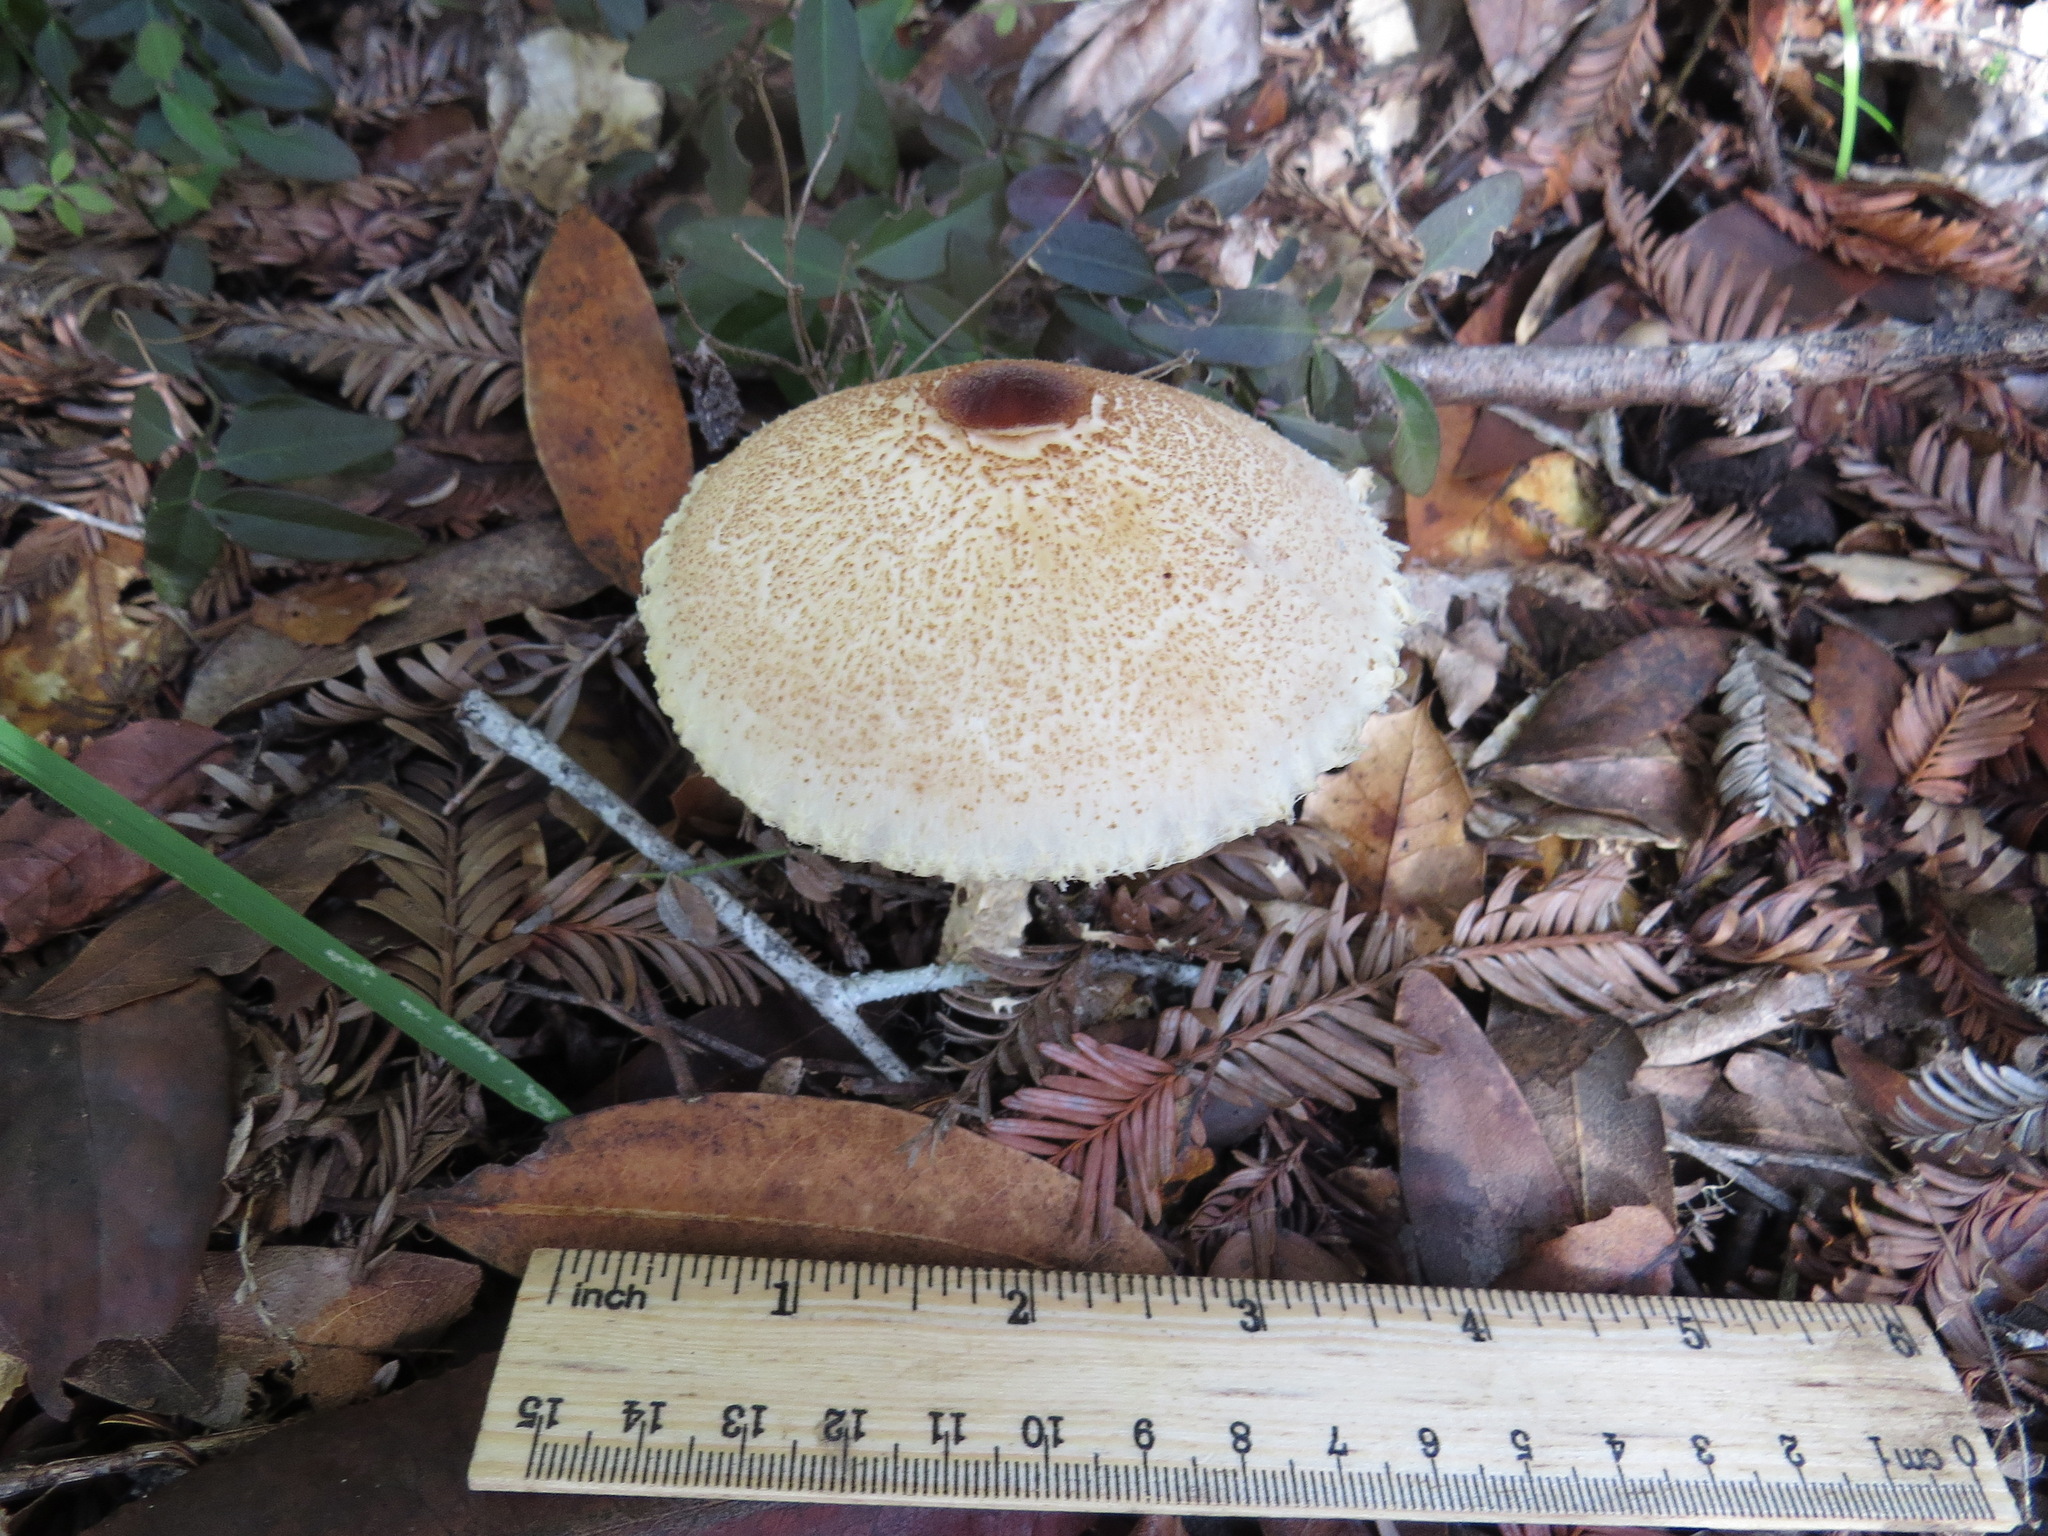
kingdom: Fungi
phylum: Basidiomycota
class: Agaricomycetes
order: Agaricales
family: Agaricaceae
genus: Lepiota
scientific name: Lepiota magnispora
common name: Yellowfoot dapperling
